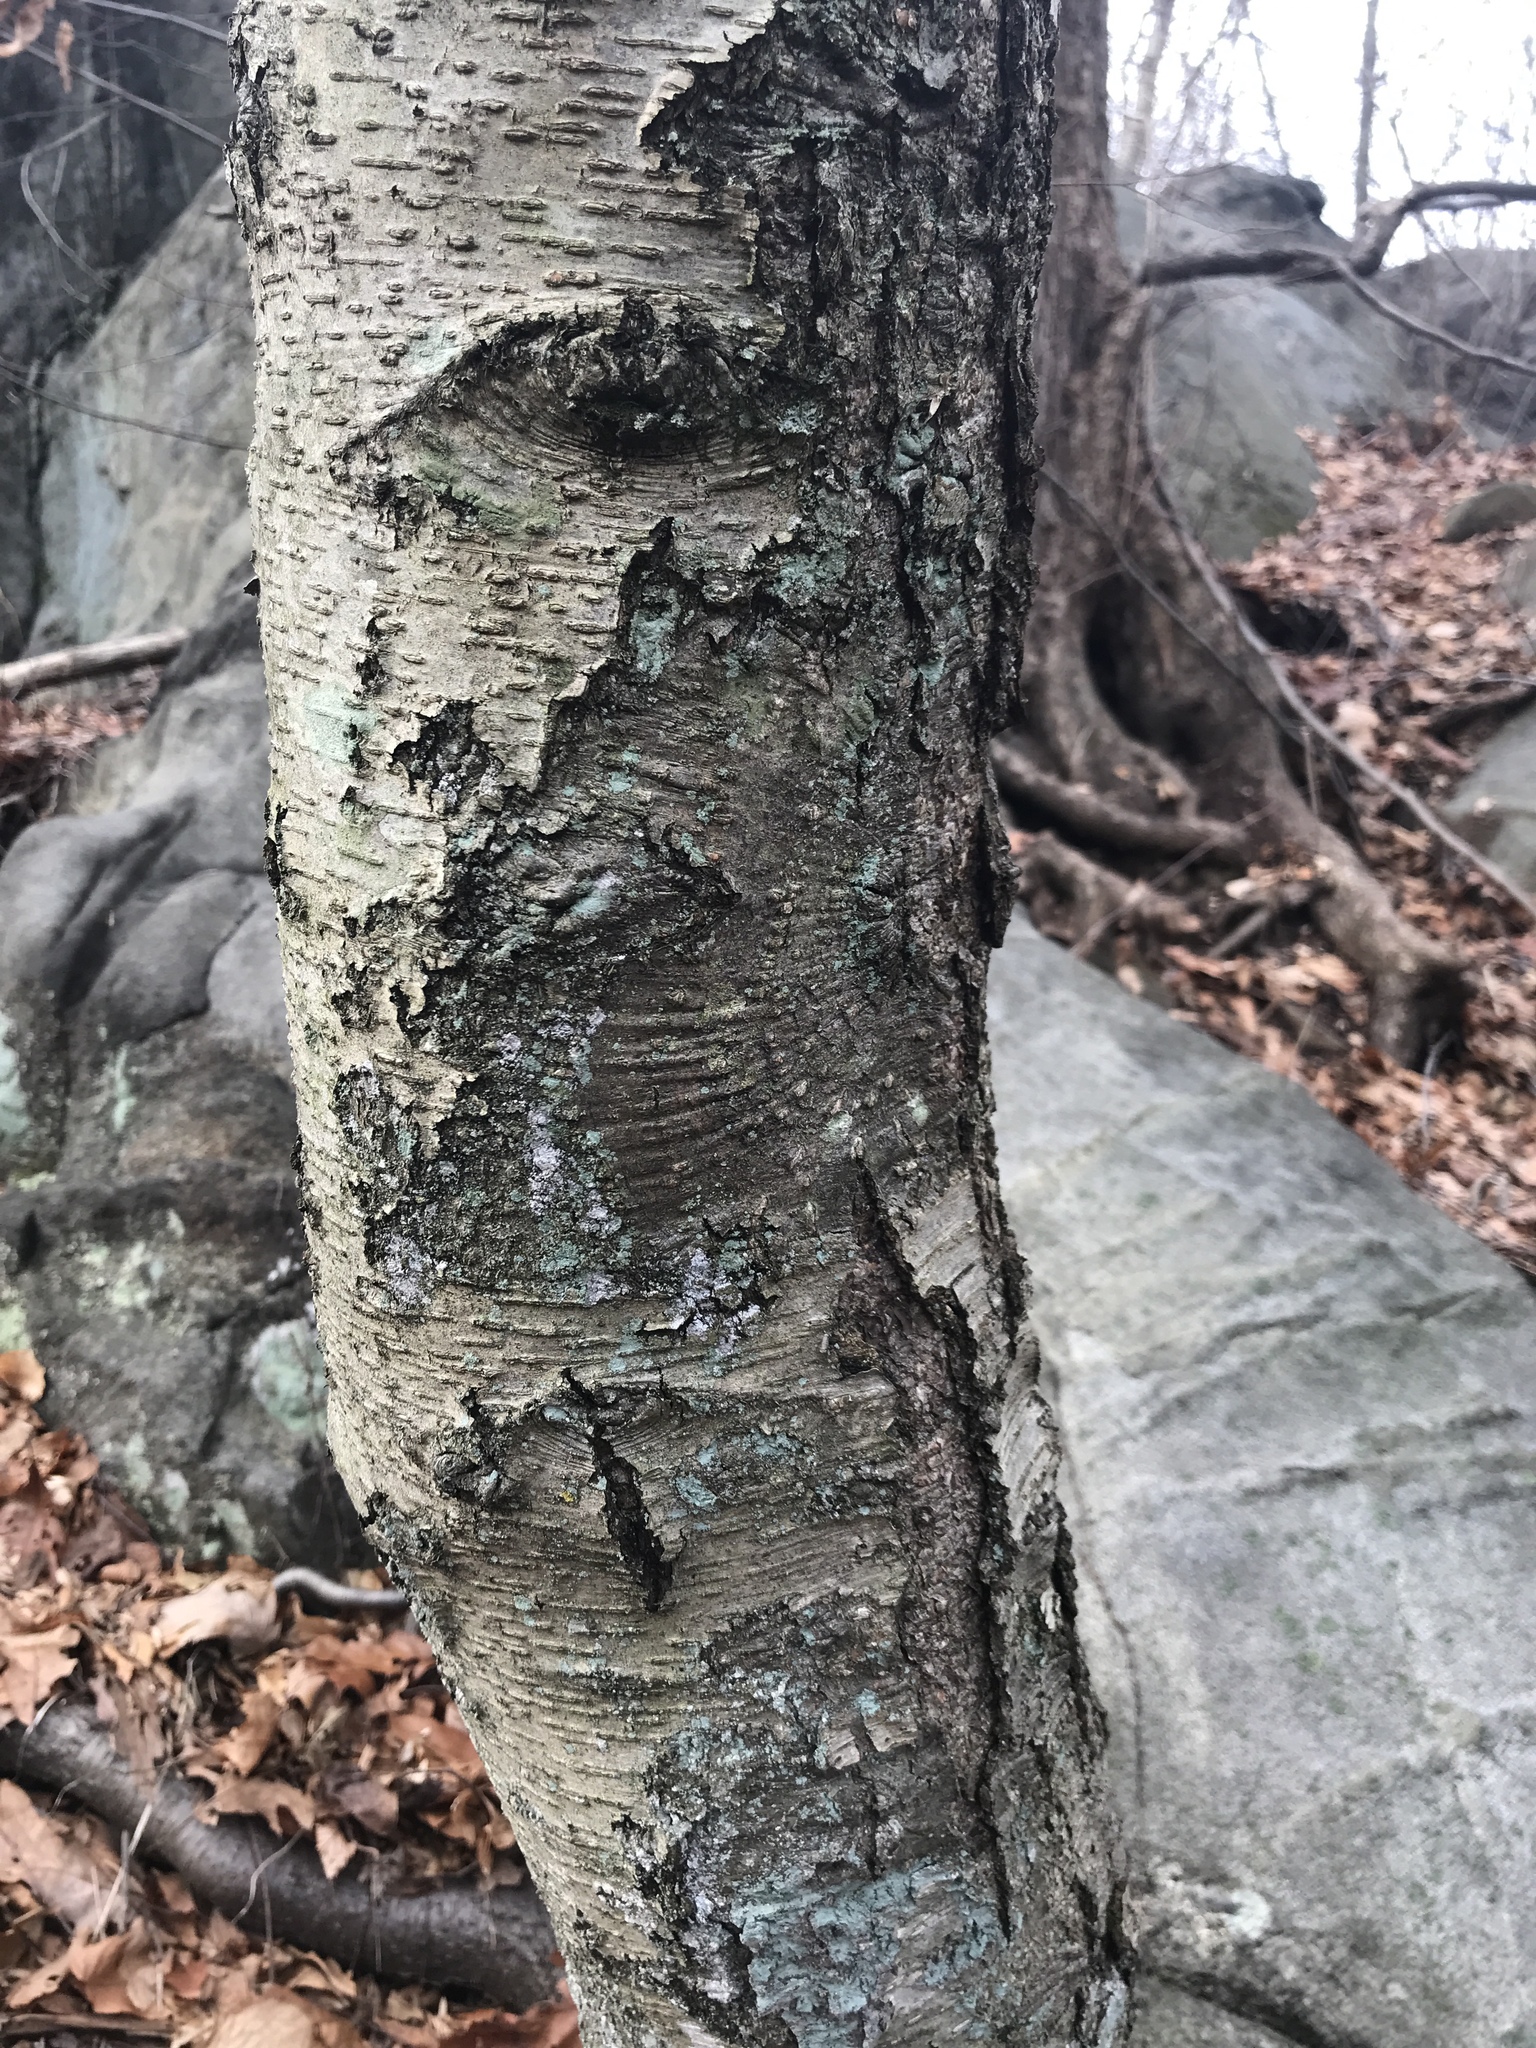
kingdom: Plantae
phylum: Tracheophyta
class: Magnoliopsida
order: Fagales
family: Betulaceae
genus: Betula
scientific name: Betula lenta
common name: Black birch
